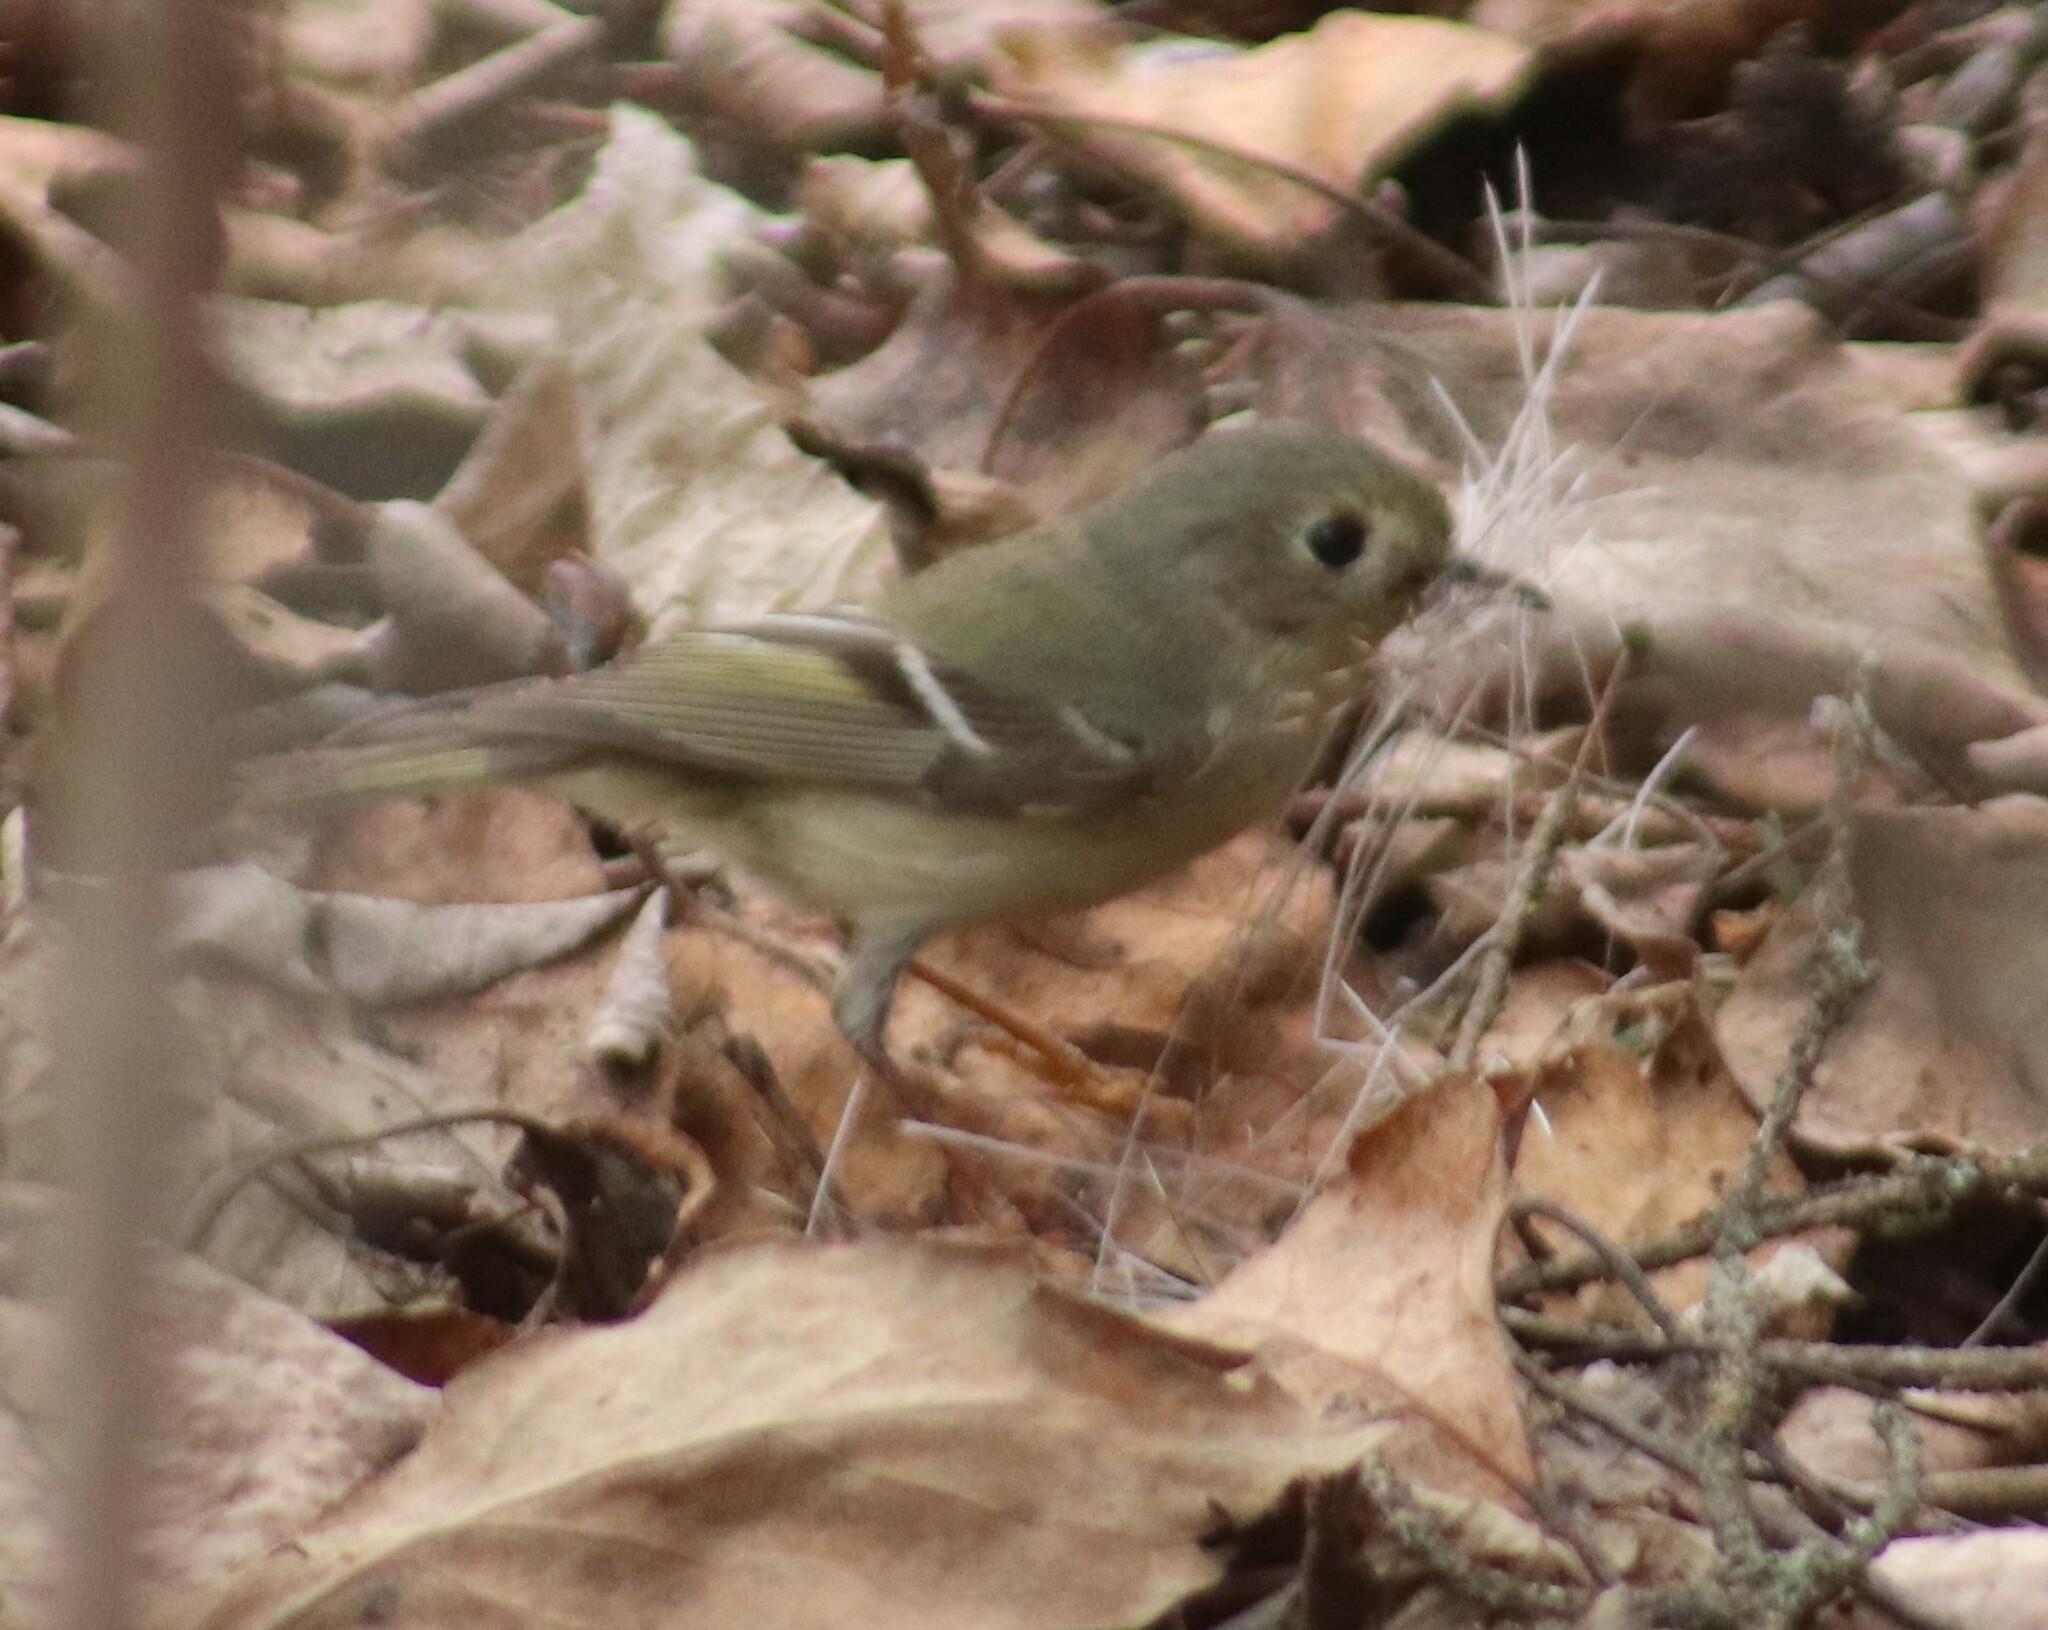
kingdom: Animalia
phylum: Chordata
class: Aves
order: Passeriformes
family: Regulidae
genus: Regulus
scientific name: Regulus calendula
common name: Ruby-crowned kinglet
